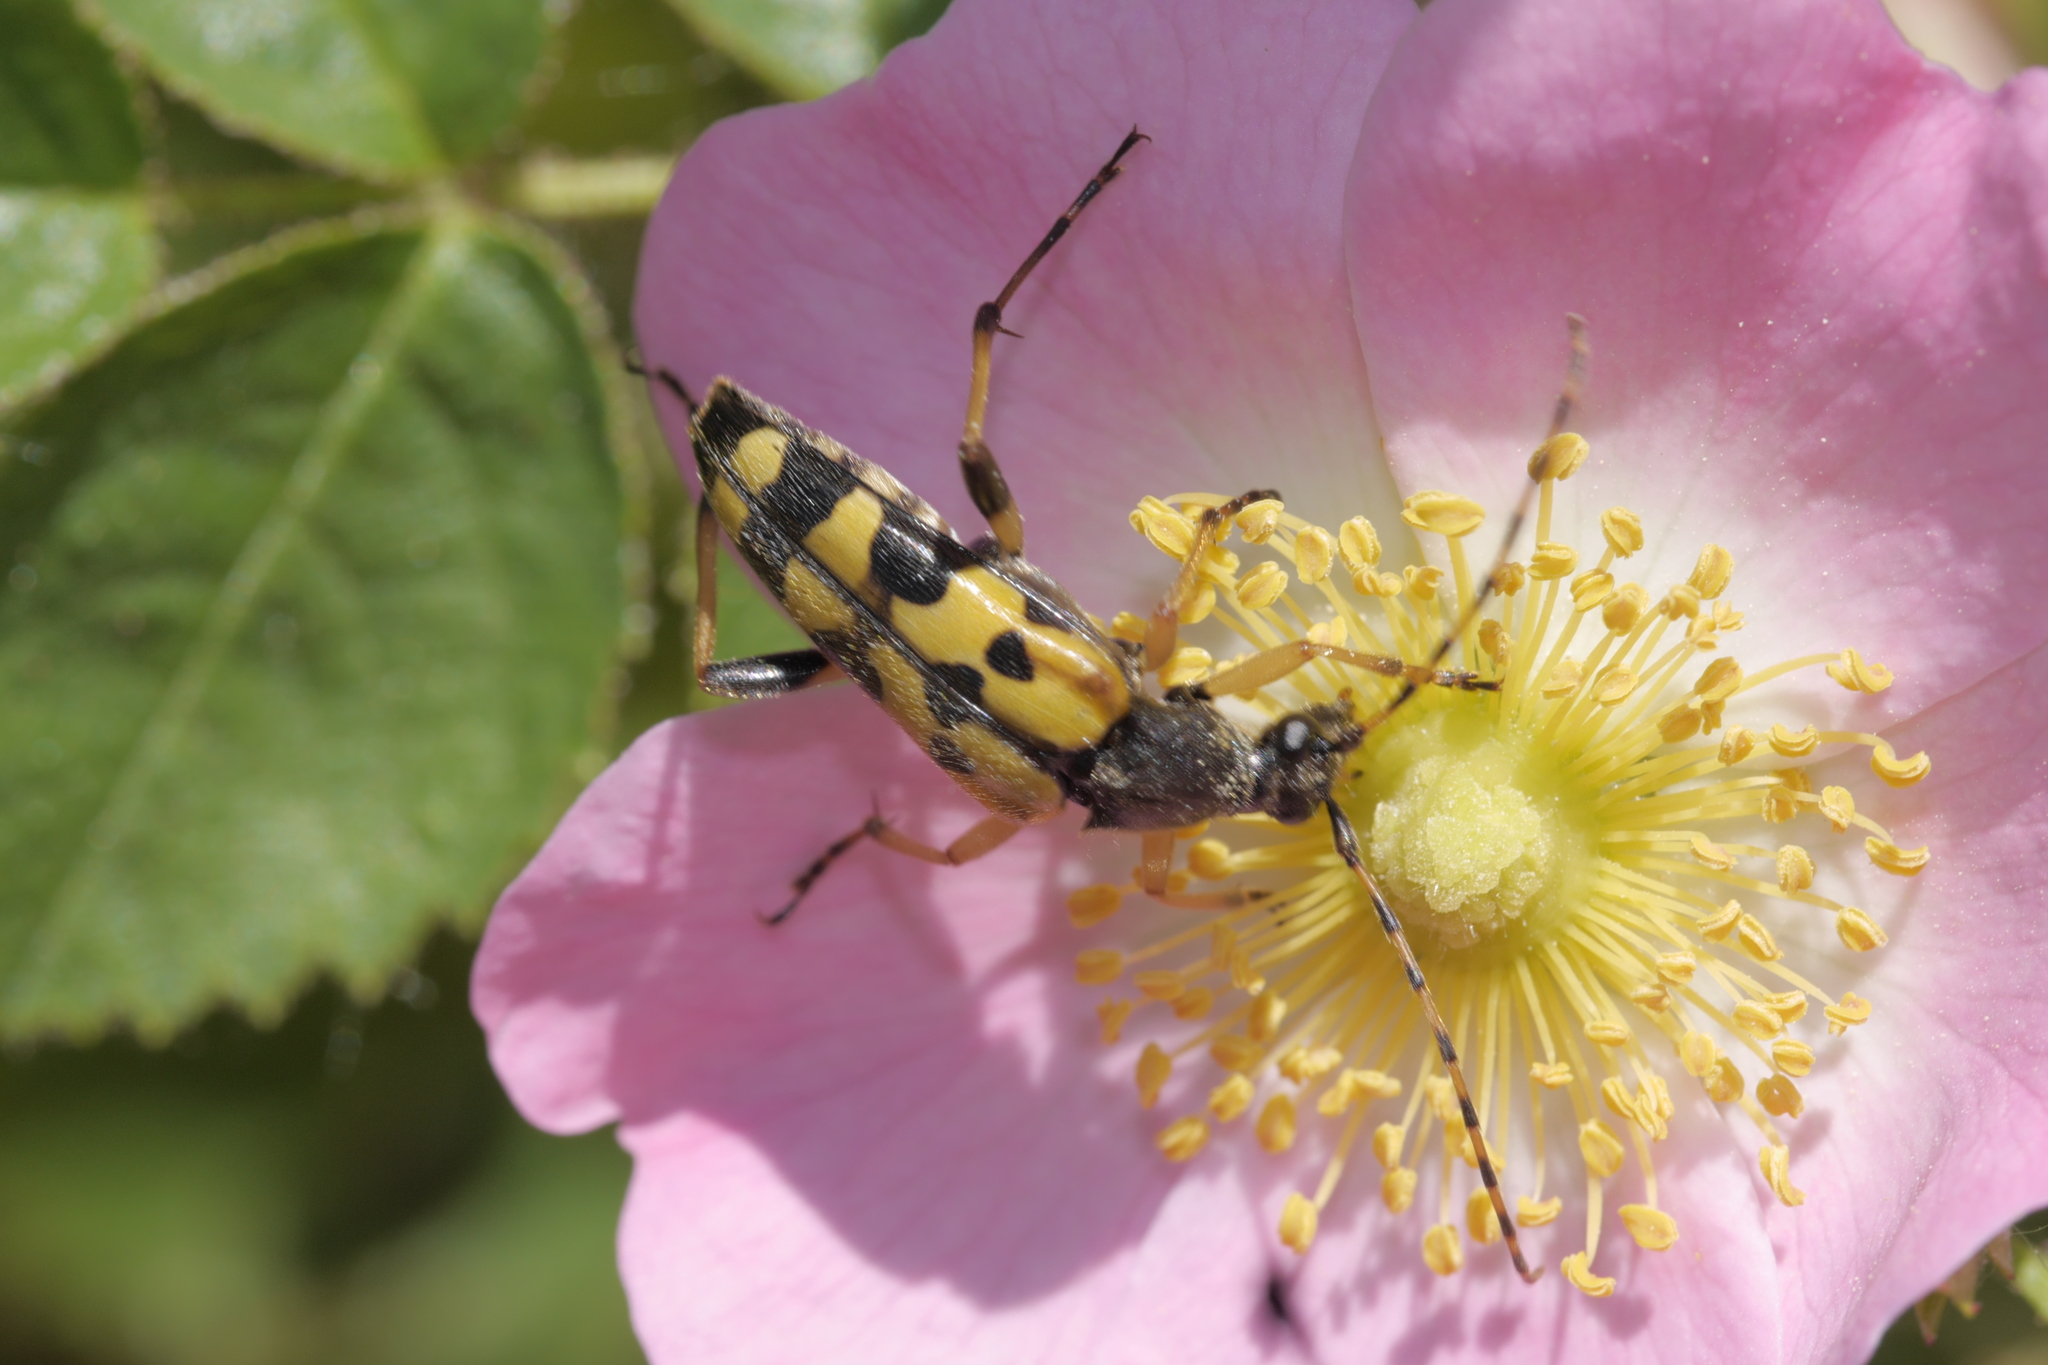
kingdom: Animalia
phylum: Arthropoda
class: Insecta
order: Coleoptera
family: Cerambycidae
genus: Rutpela
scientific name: Rutpela maculata
